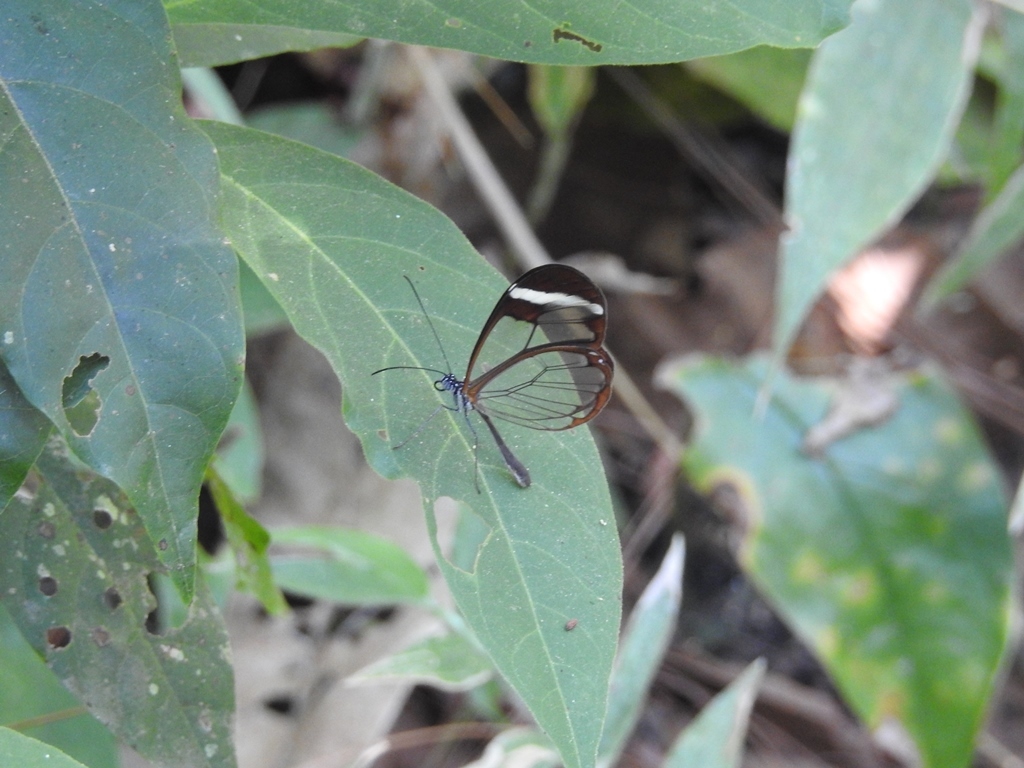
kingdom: Animalia
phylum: Arthropoda
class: Insecta
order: Lepidoptera
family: Nymphalidae
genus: Greta
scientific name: Greta morgane
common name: Thick-tipped greta
